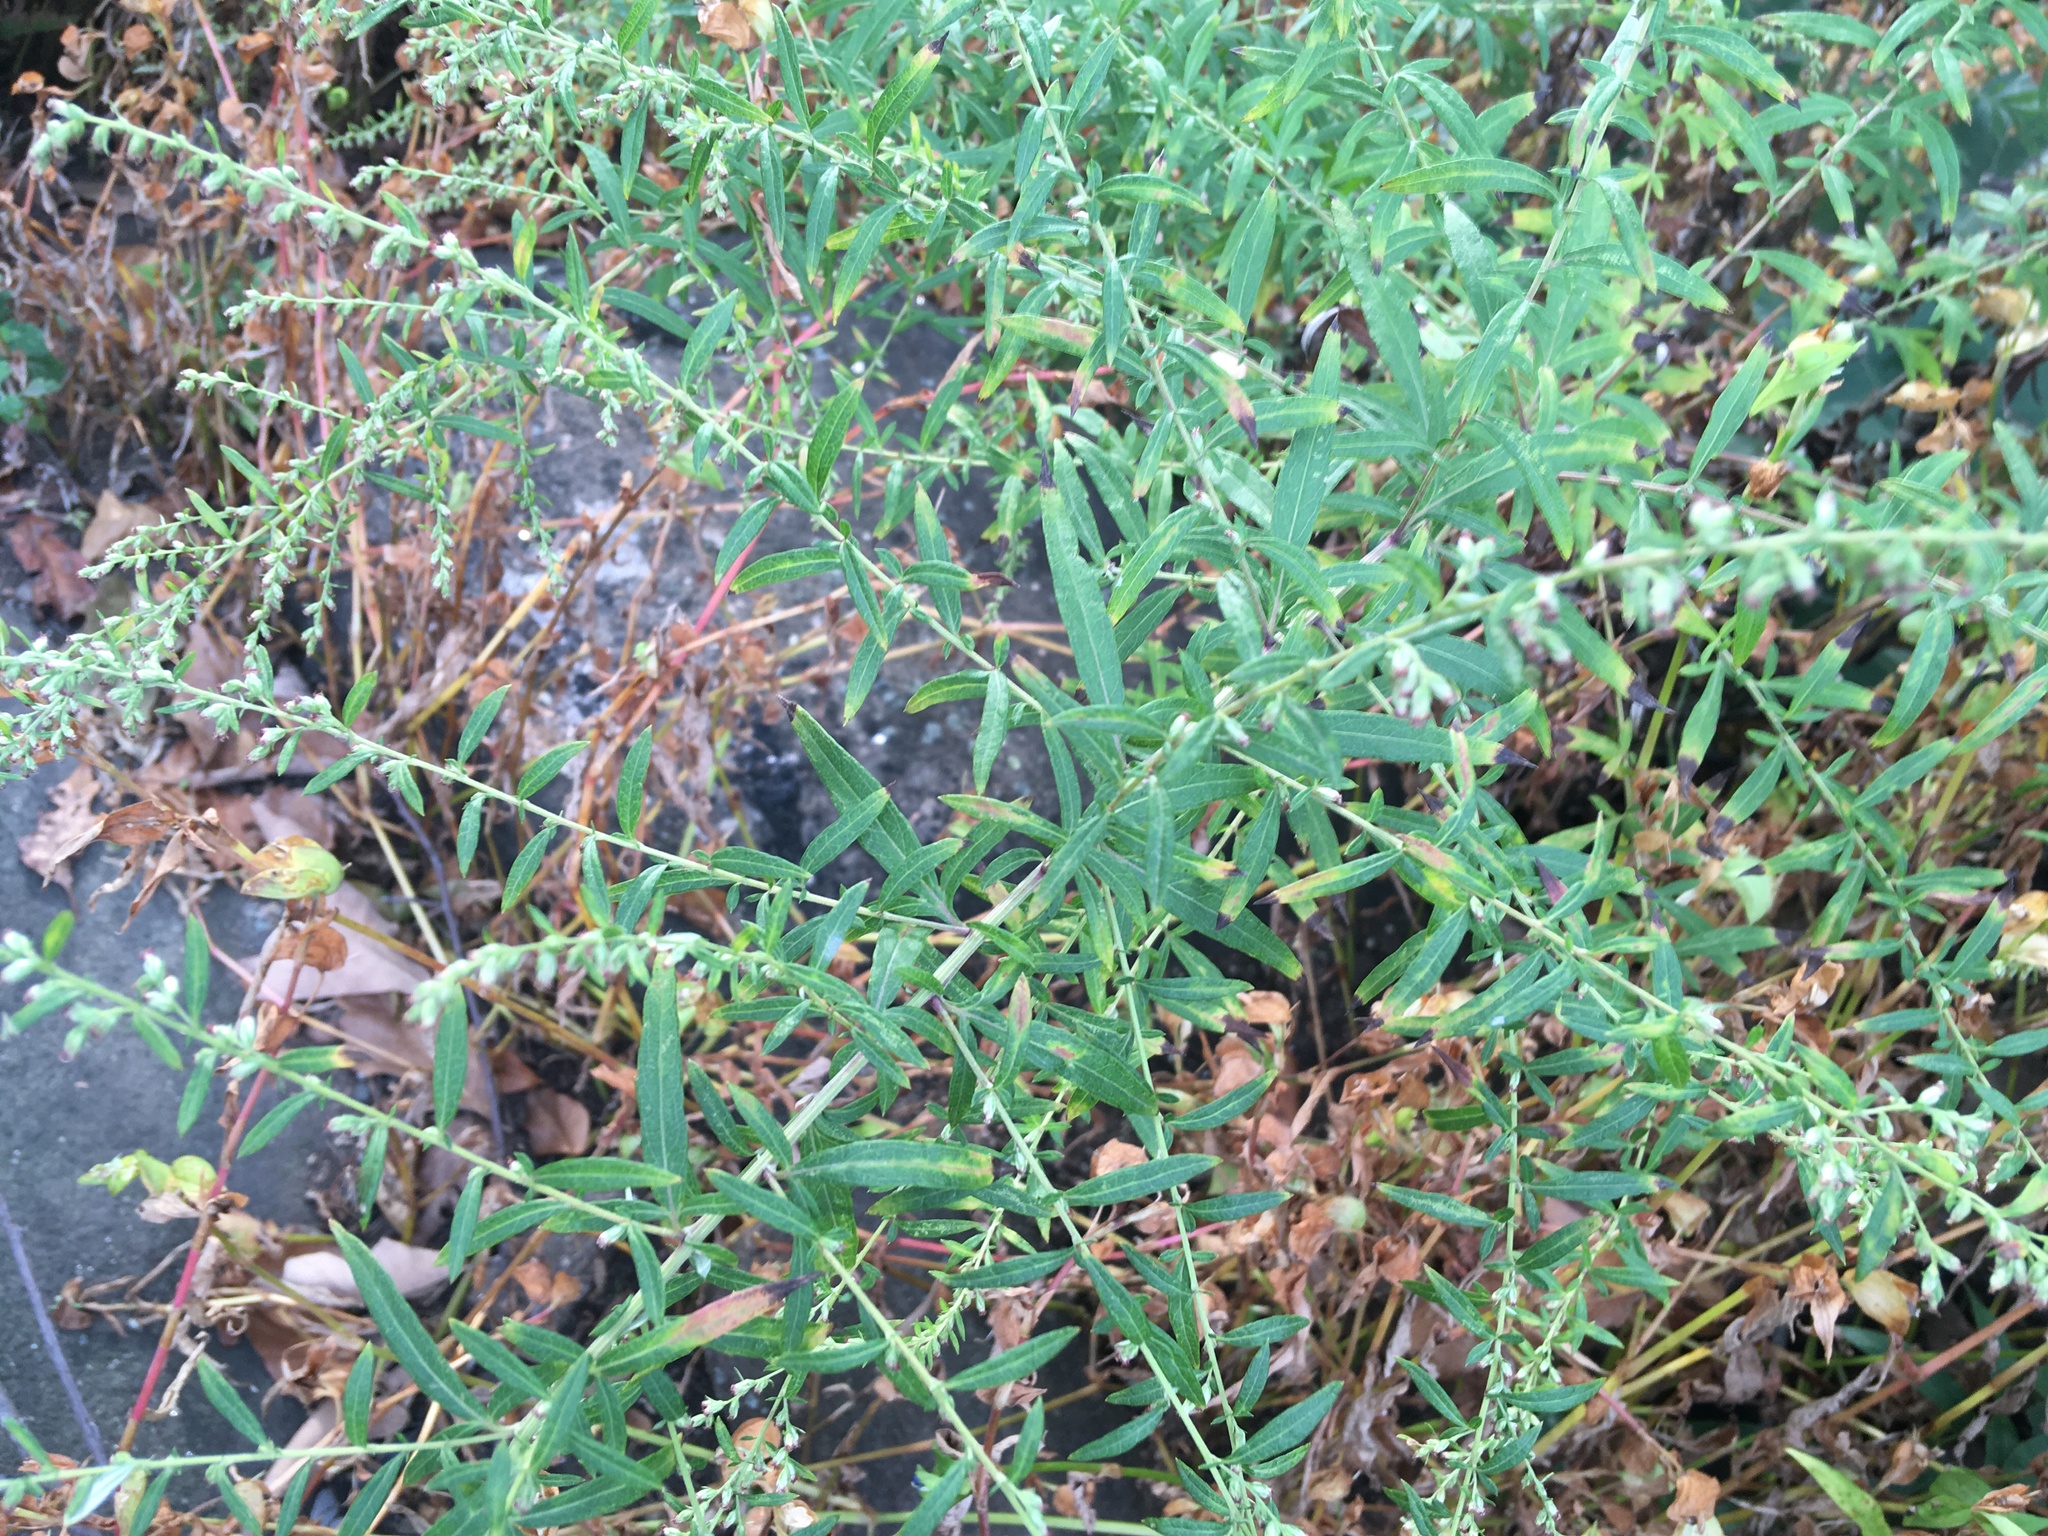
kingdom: Plantae
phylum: Tracheophyta
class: Magnoliopsida
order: Asterales
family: Asteraceae
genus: Artemisia
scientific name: Artemisia vulgaris
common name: Mugwort
